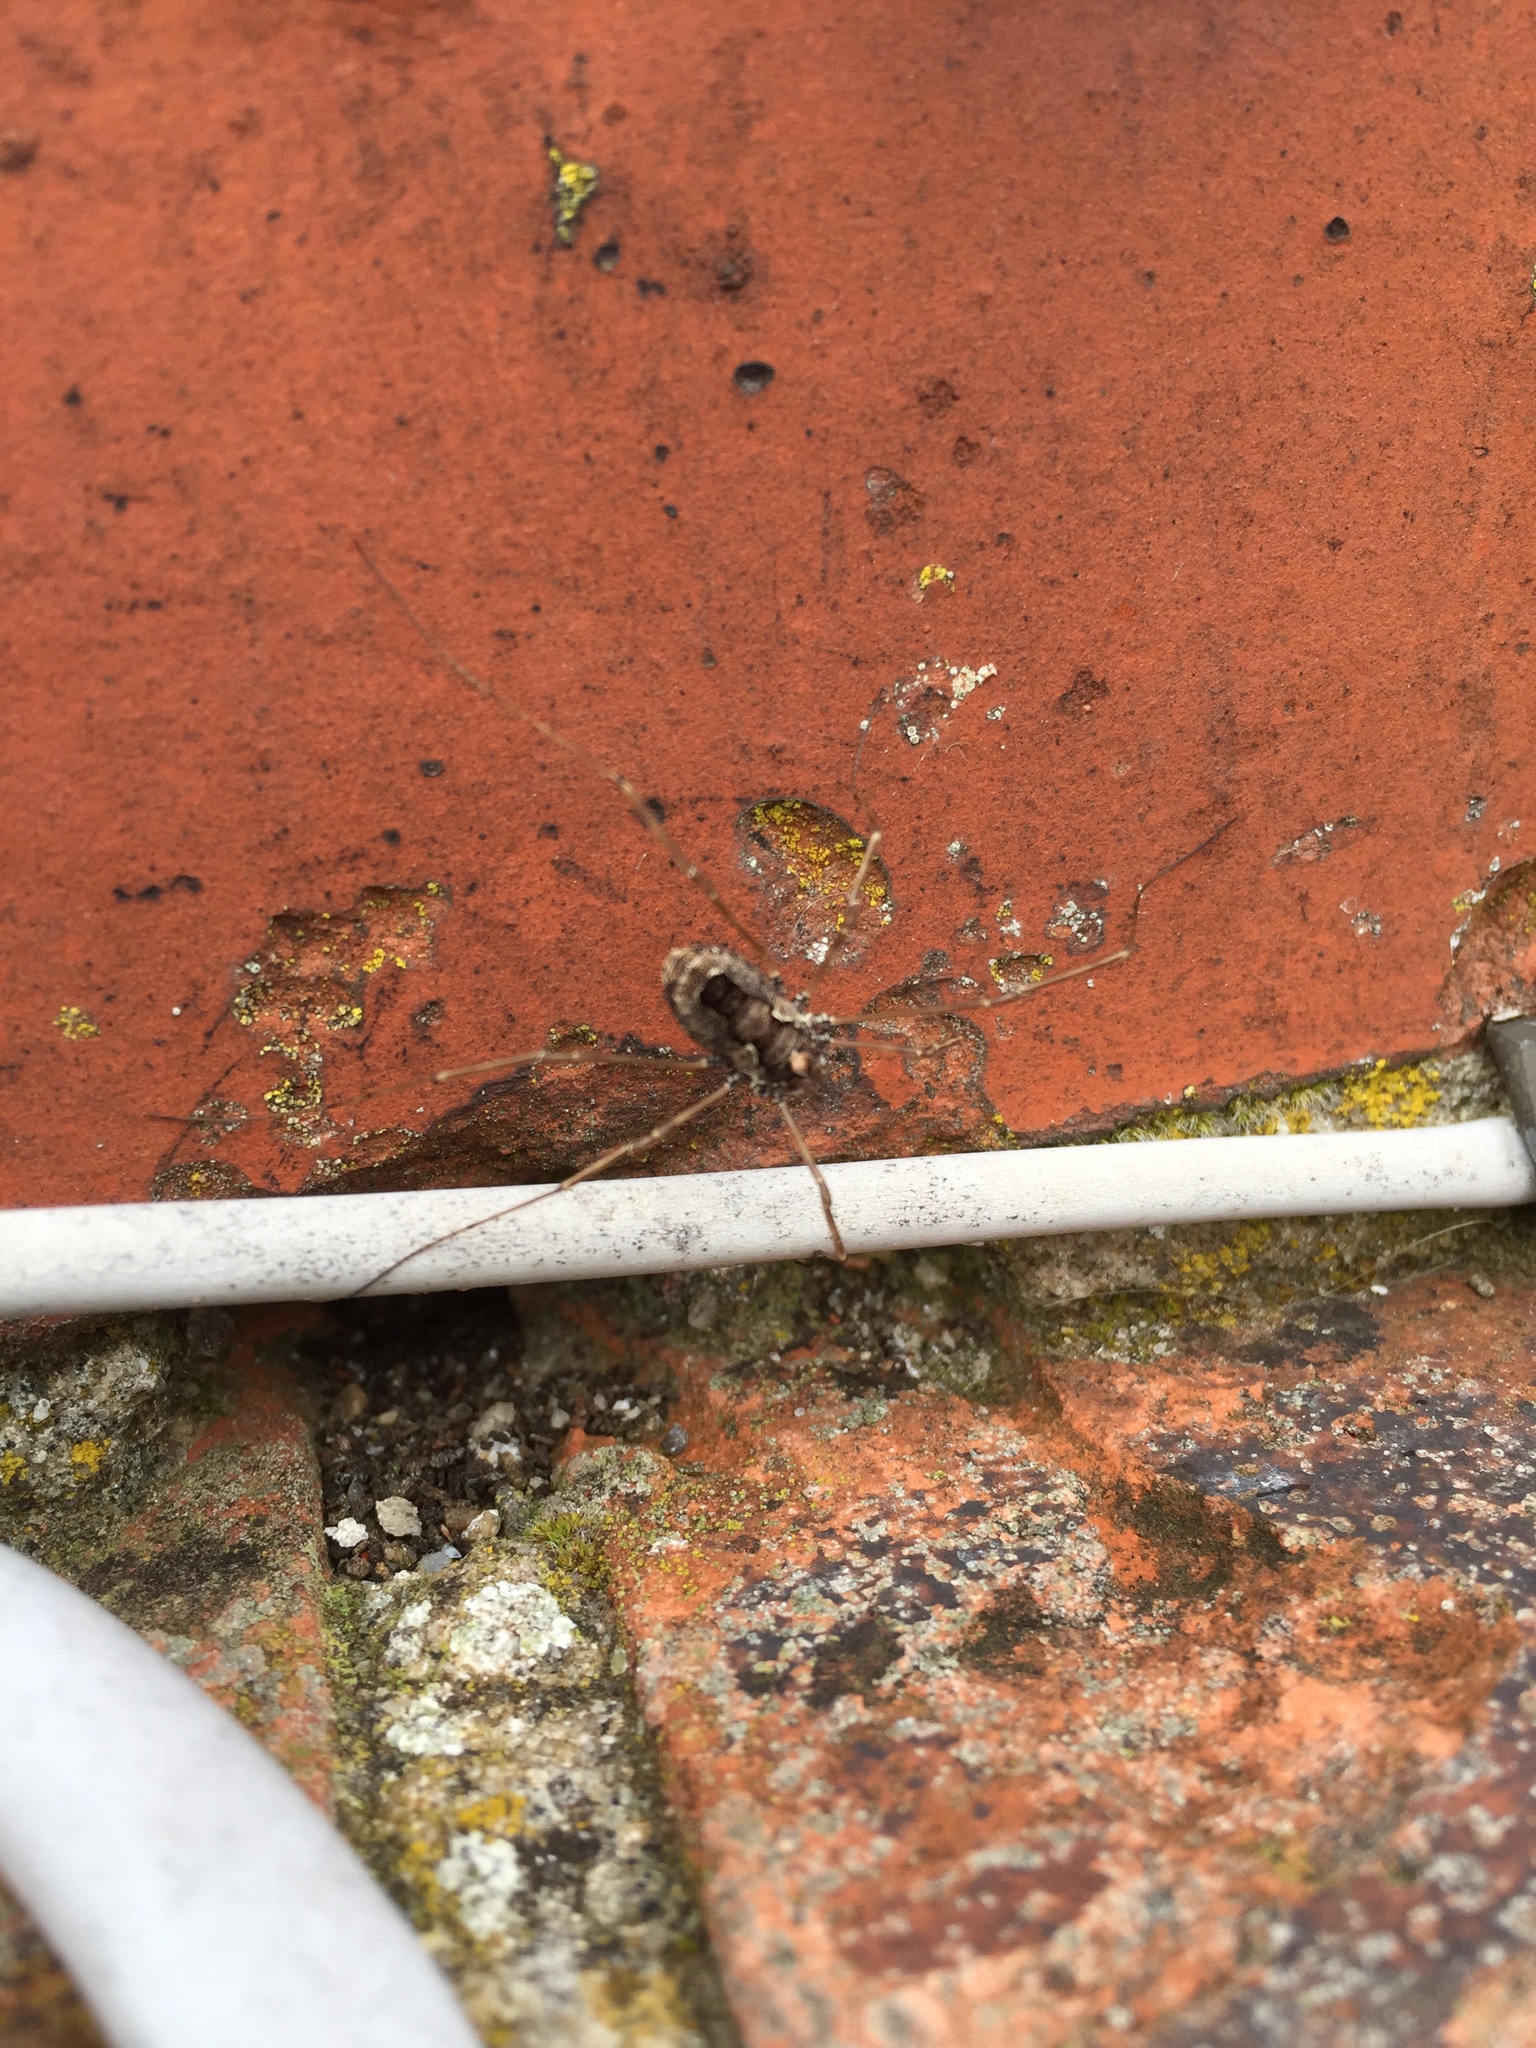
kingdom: Animalia
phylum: Arthropoda
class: Arachnida
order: Opiliones
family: Phalangiidae
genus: Platybunus
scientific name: Platybunus pinetorum
